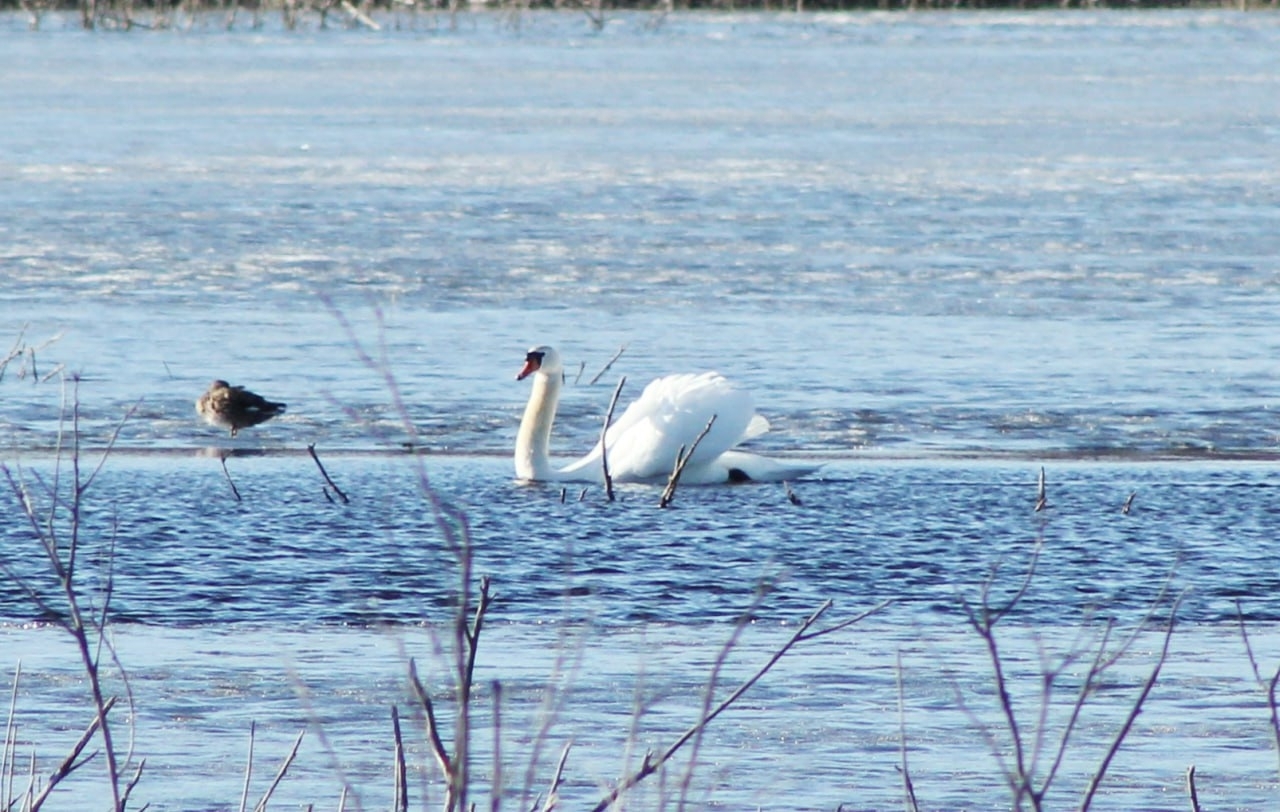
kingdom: Animalia
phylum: Chordata
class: Aves
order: Anseriformes
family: Anatidae
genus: Cygnus
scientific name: Cygnus olor
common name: Mute swan
